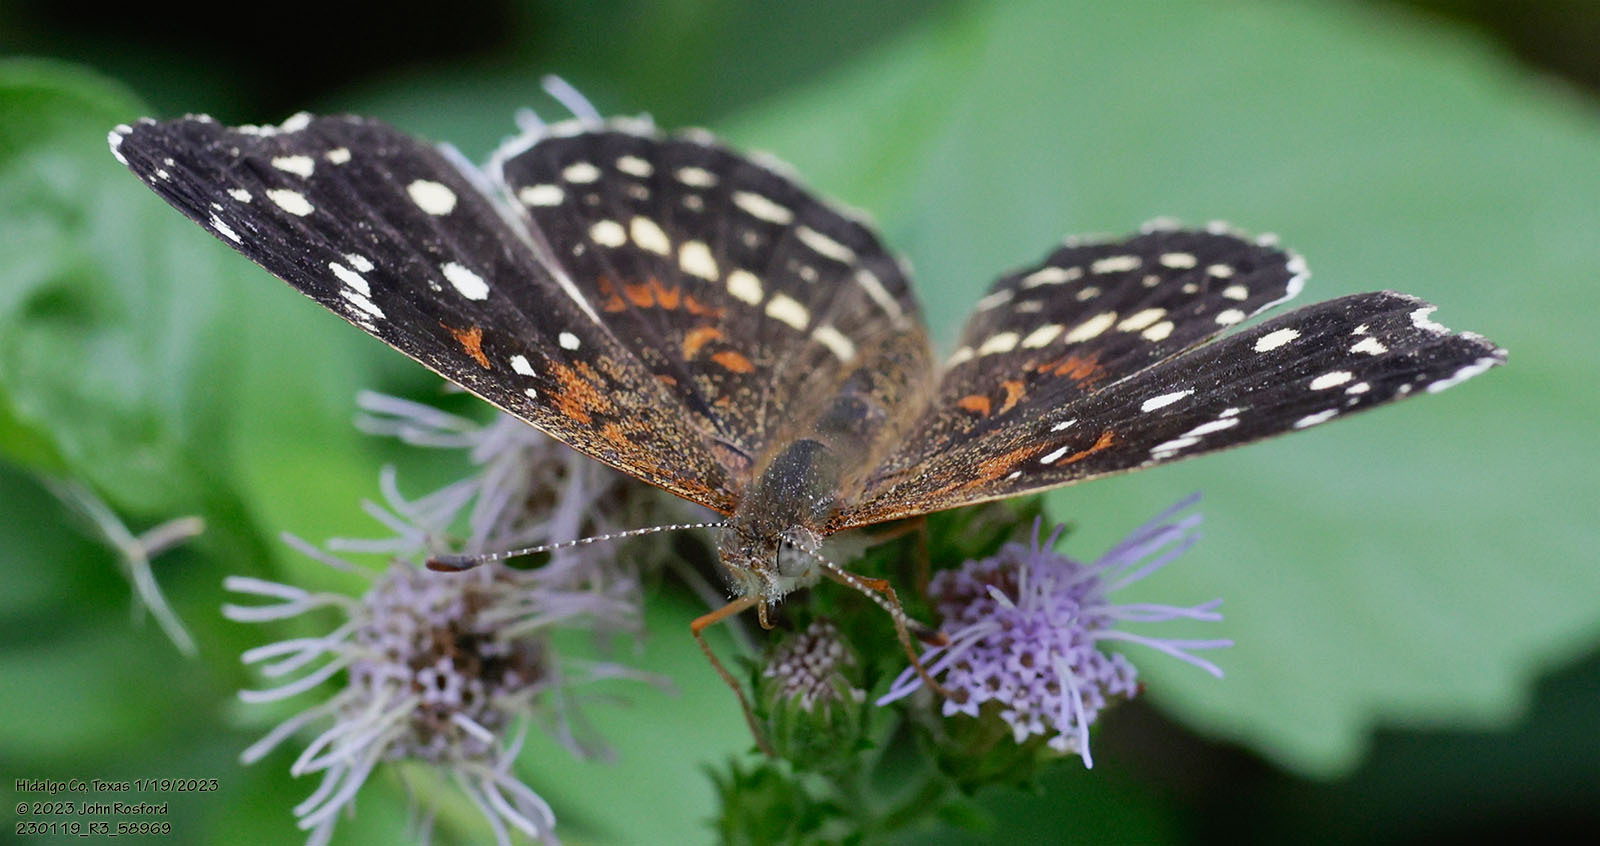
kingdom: Animalia
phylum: Arthropoda
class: Insecta
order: Lepidoptera
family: Nymphalidae
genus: Anthanassa
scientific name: Anthanassa texana
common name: Texan crescent
